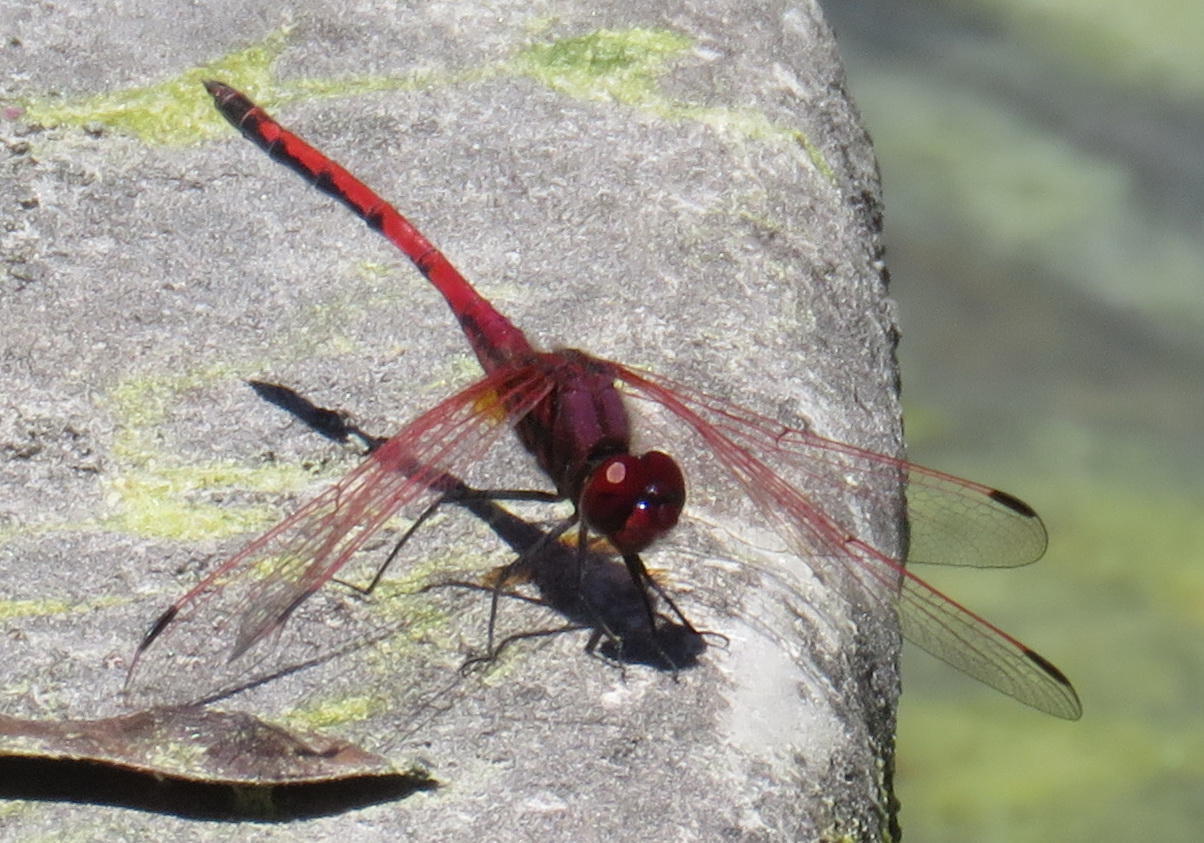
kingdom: Animalia
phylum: Arthropoda
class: Insecta
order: Odonata
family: Libellulidae
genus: Trithemis
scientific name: Trithemis arteriosa
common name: Red-veined dropwing
